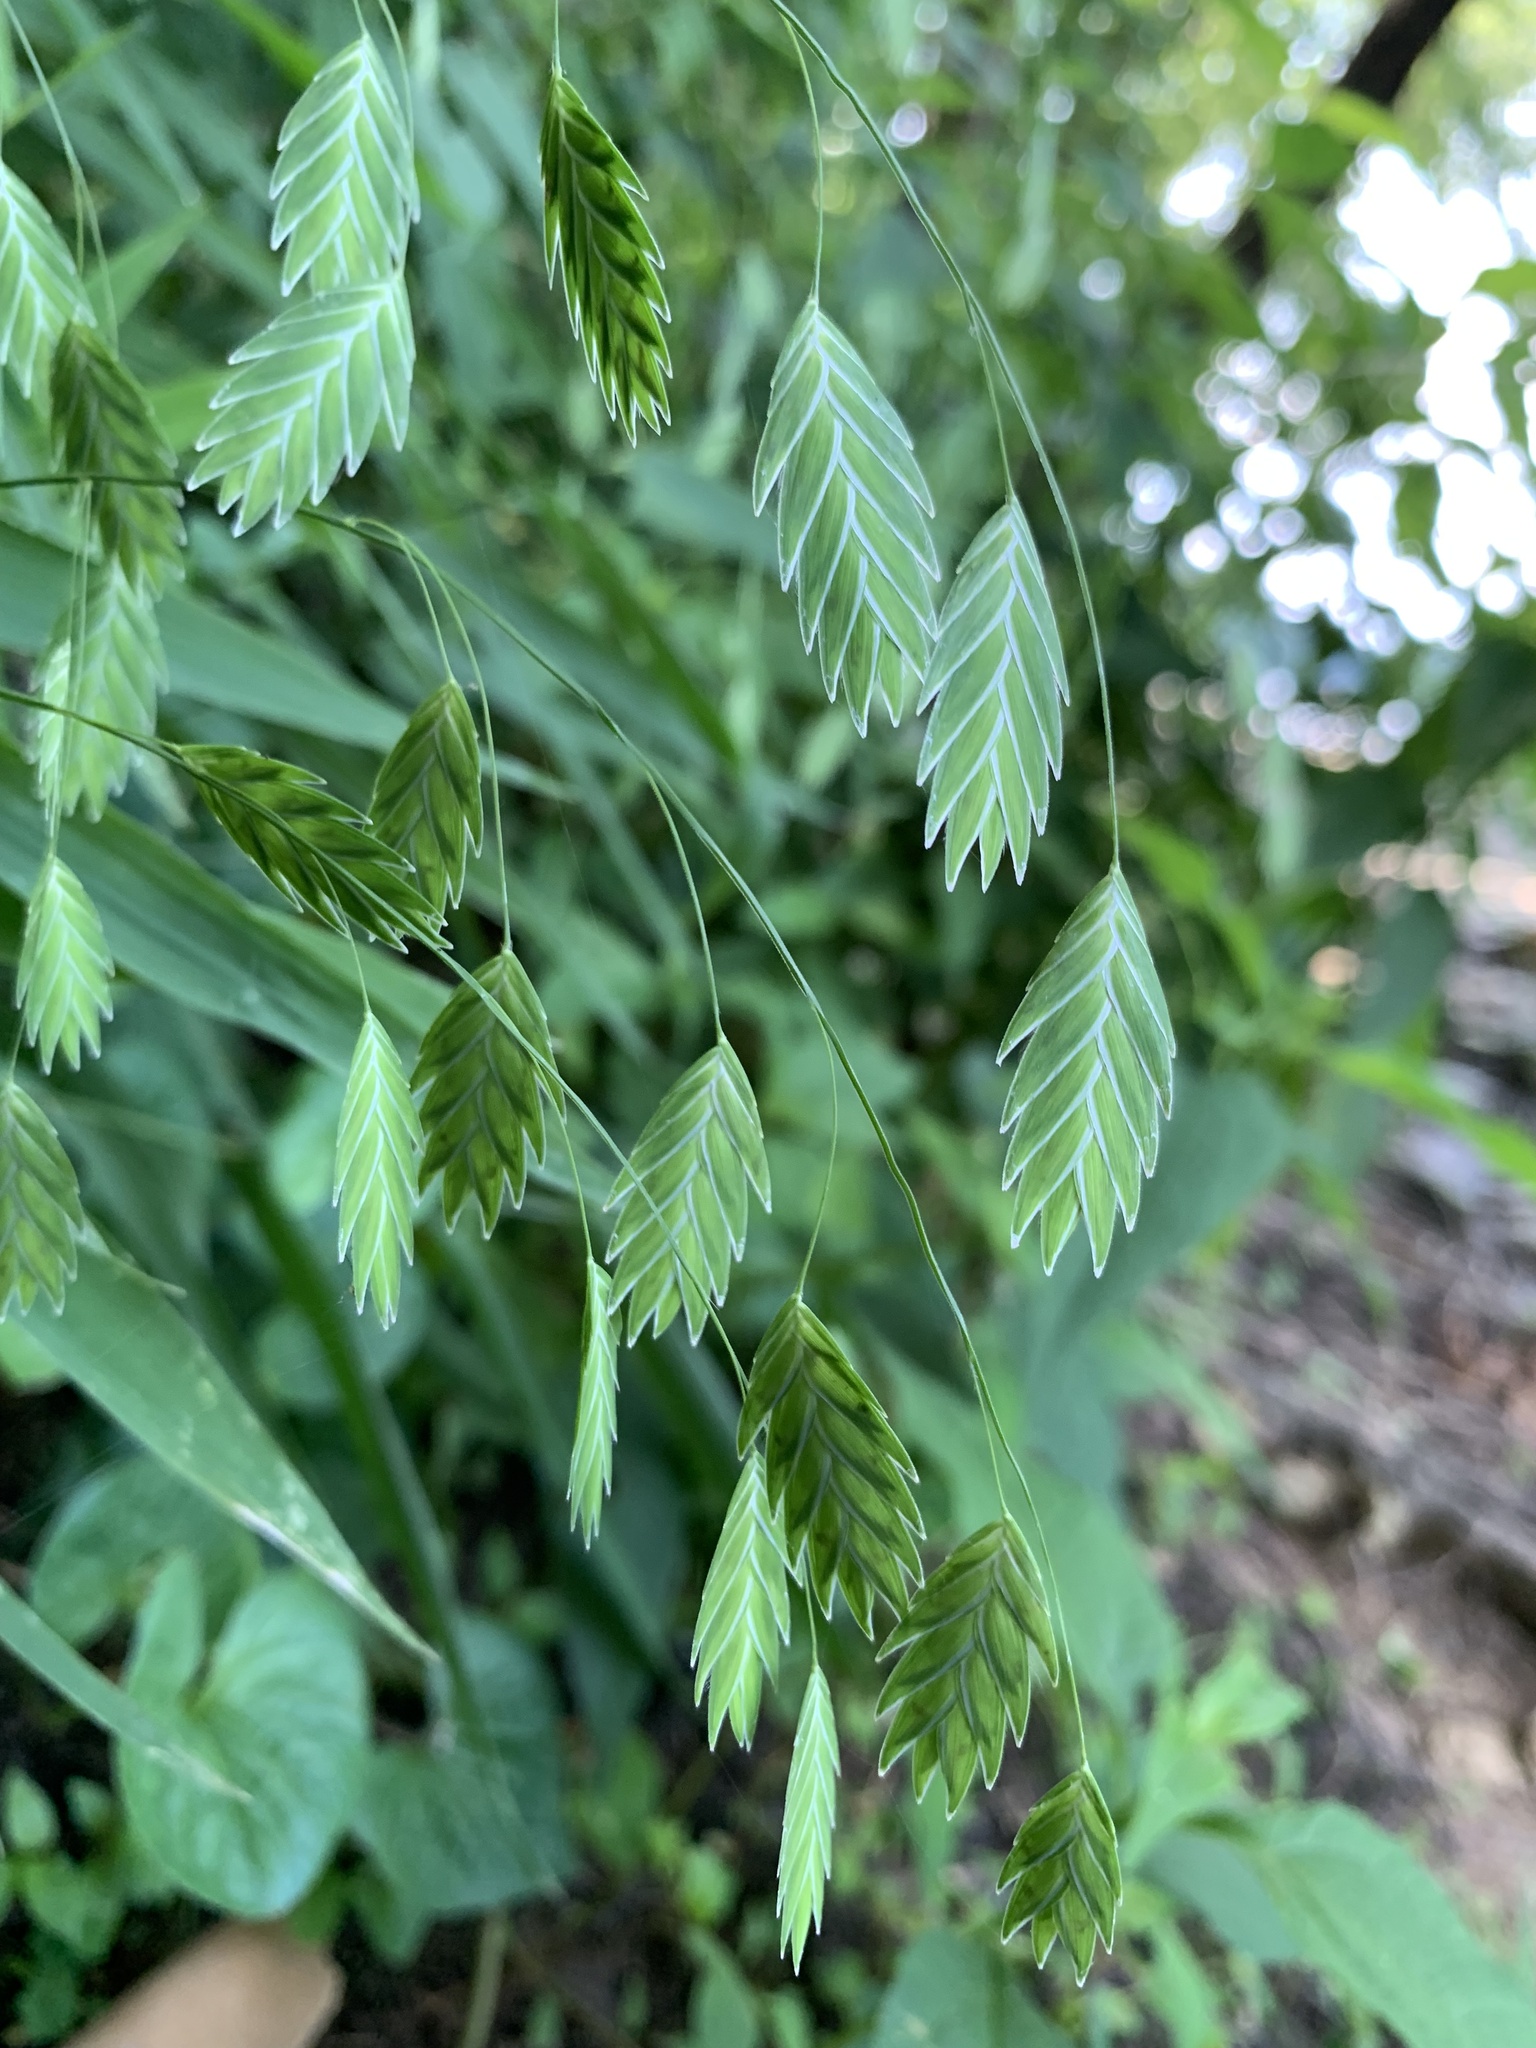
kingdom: Plantae
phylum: Tracheophyta
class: Liliopsida
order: Poales
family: Poaceae
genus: Chasmanthium
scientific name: Chasmanthium latifolium
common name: Broad-leaved chasmanthium
